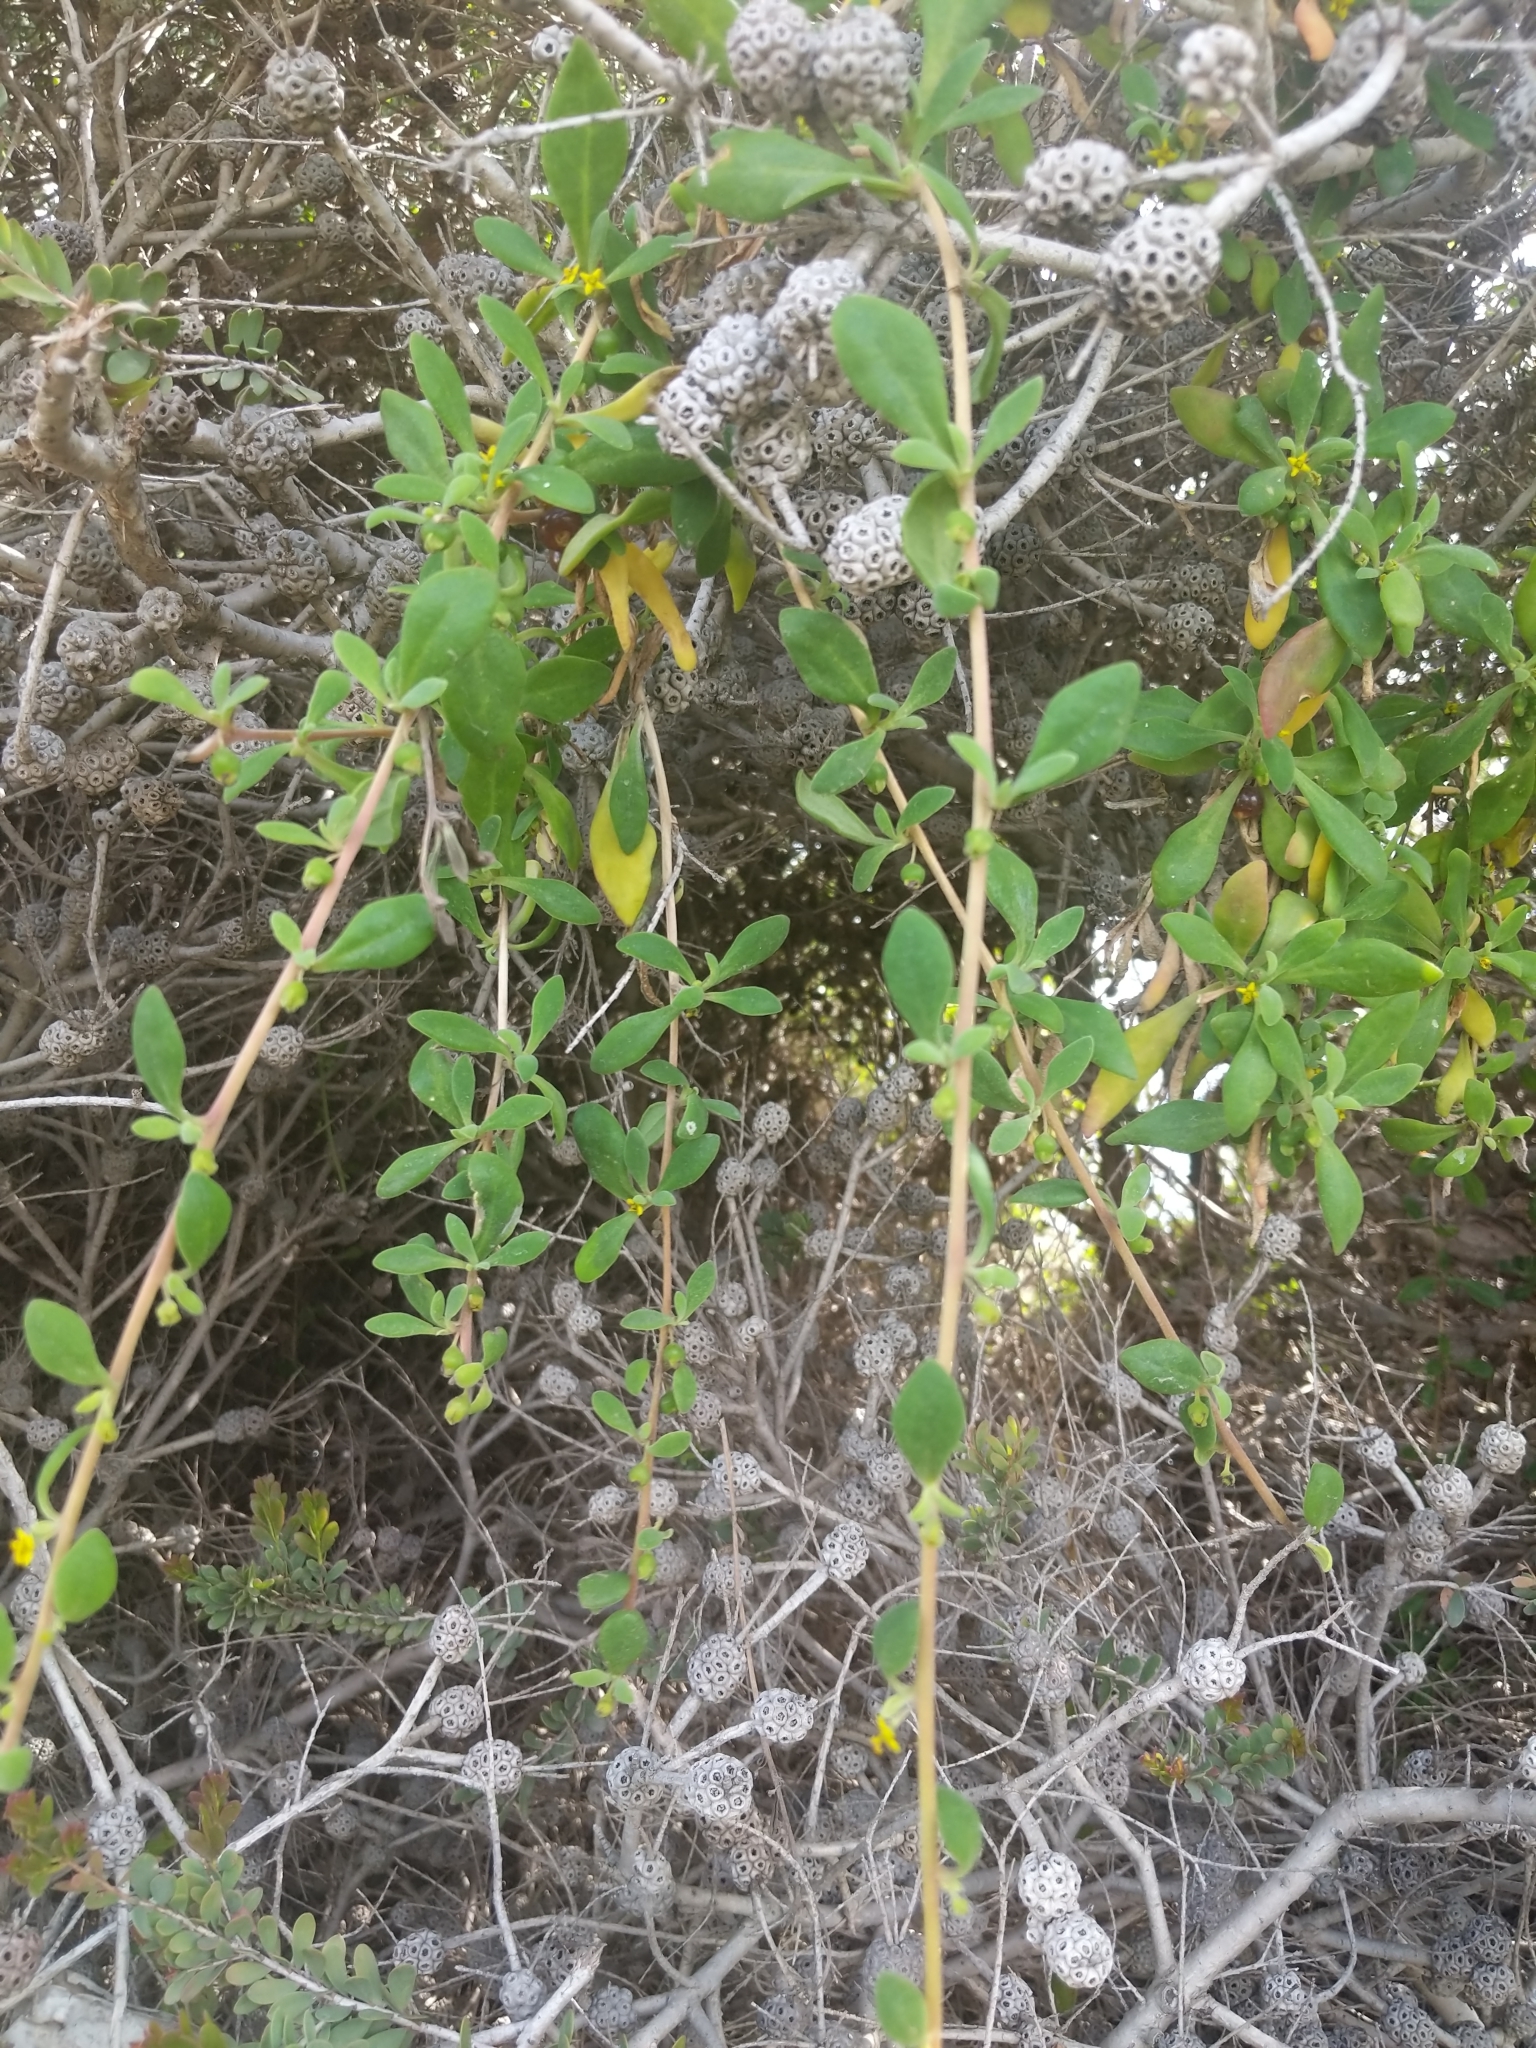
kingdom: Plantae
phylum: Tracheophyta
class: Magnoliopsida
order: Caryophyllales
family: Aizoaceae
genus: Tetragonia
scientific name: Tetragonia implexicoma
